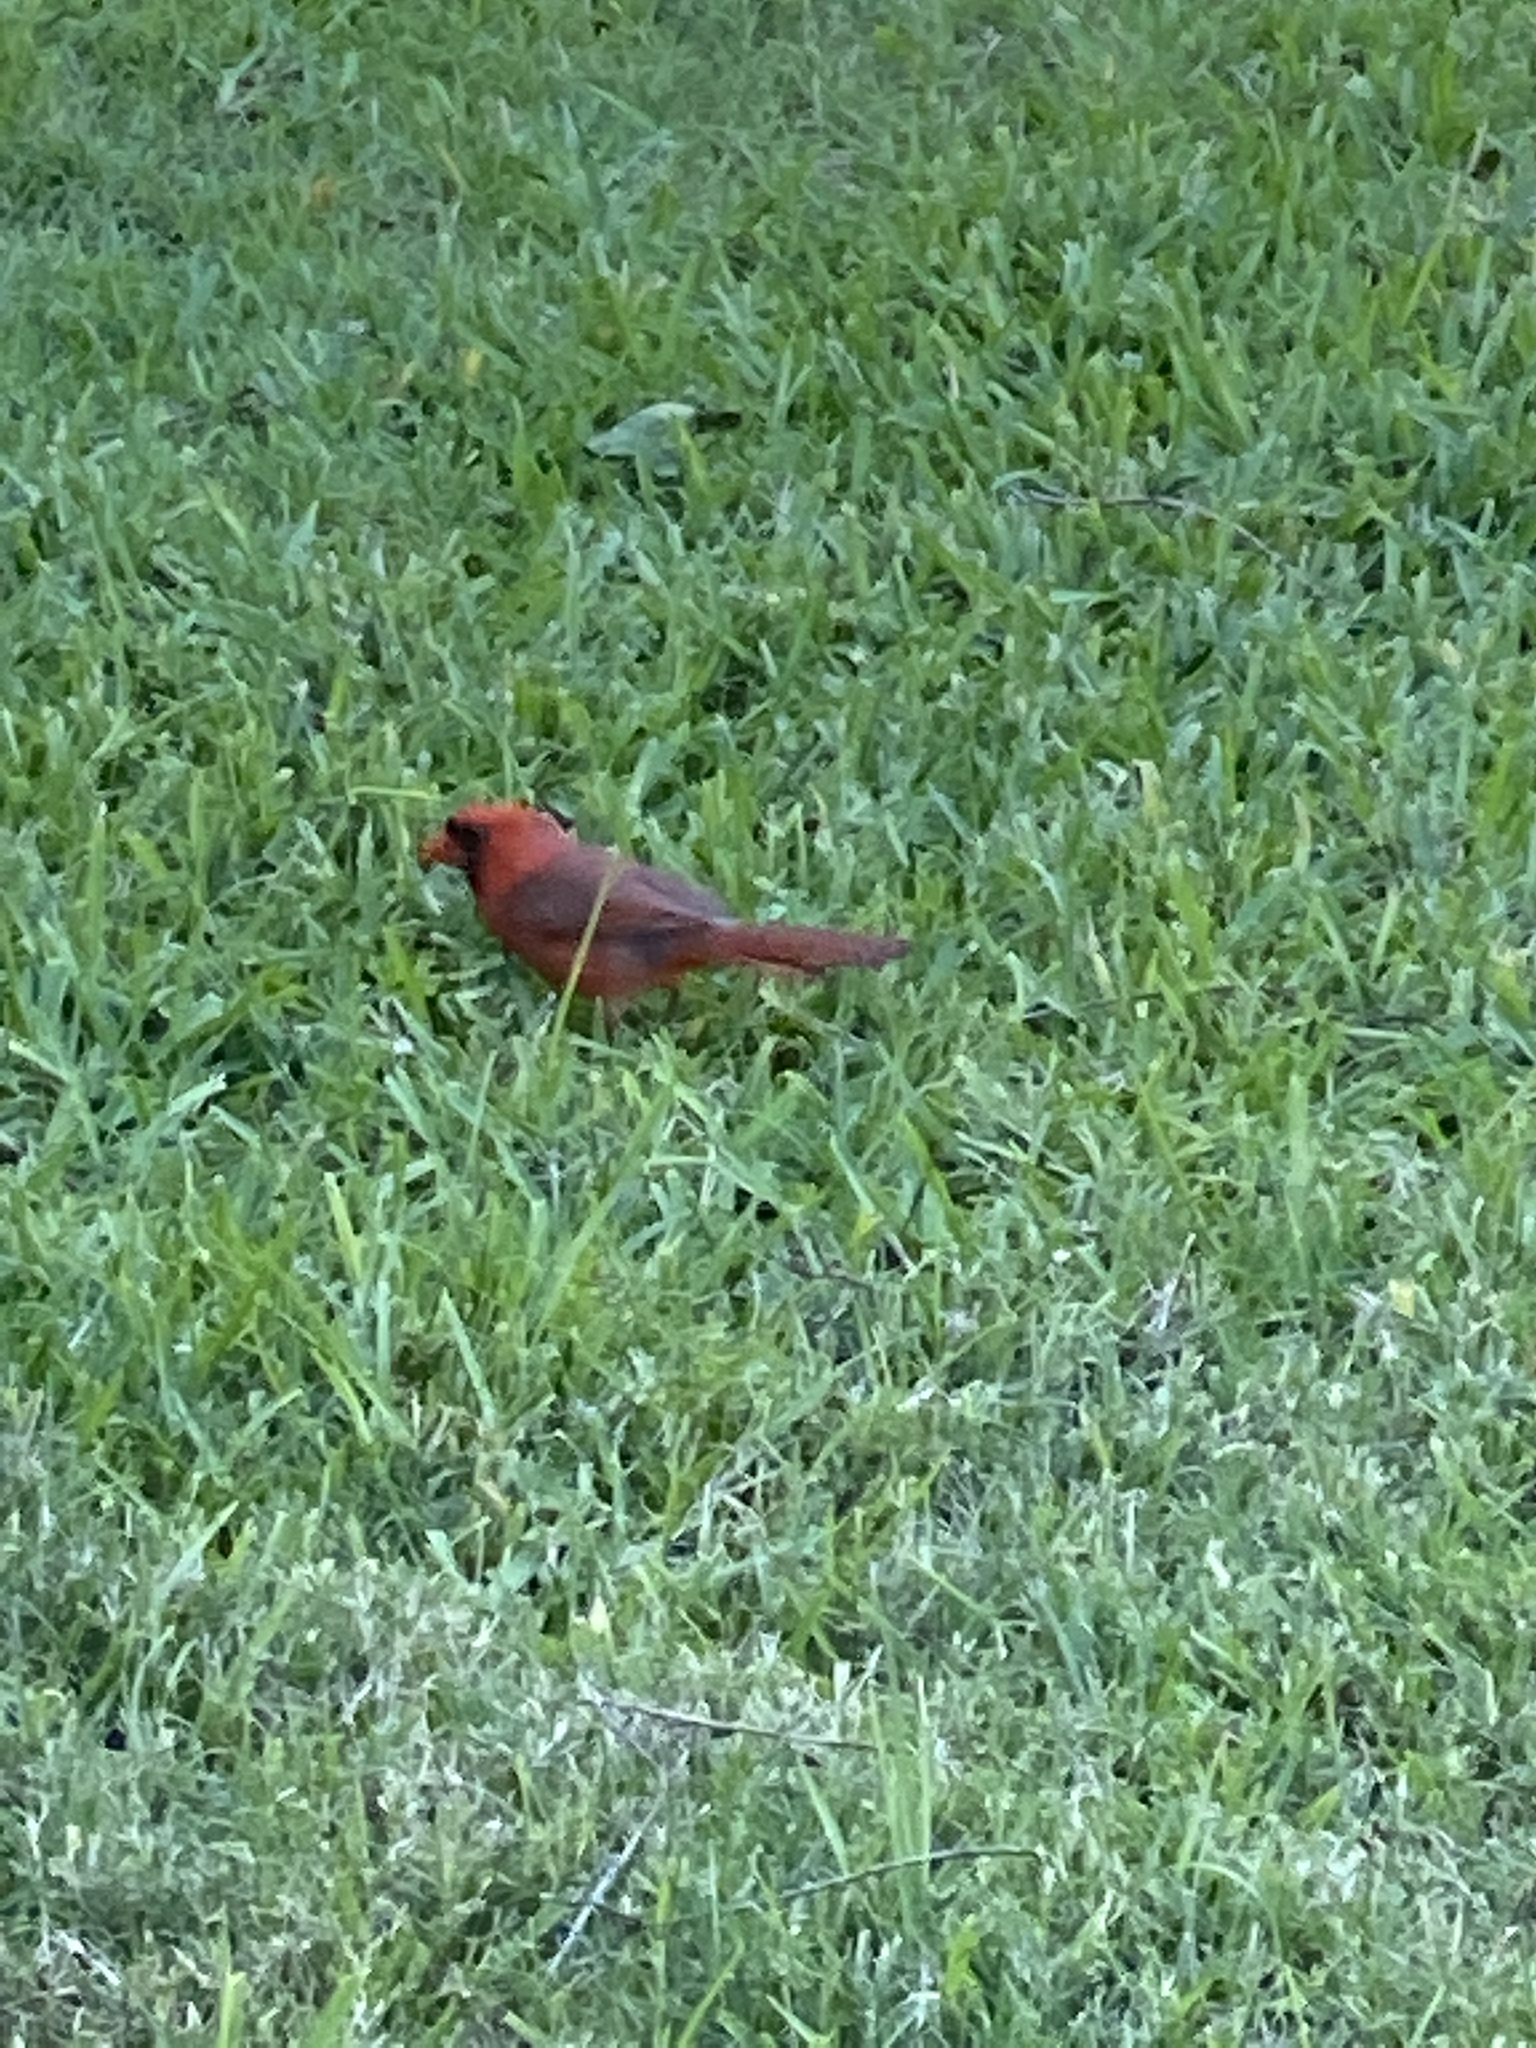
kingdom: Animalia
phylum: Chordata
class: Aves
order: Passeriformes
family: Cardinalidae
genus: Cardinalis
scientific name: Cardinalis cardinalis
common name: Northern cardinal
